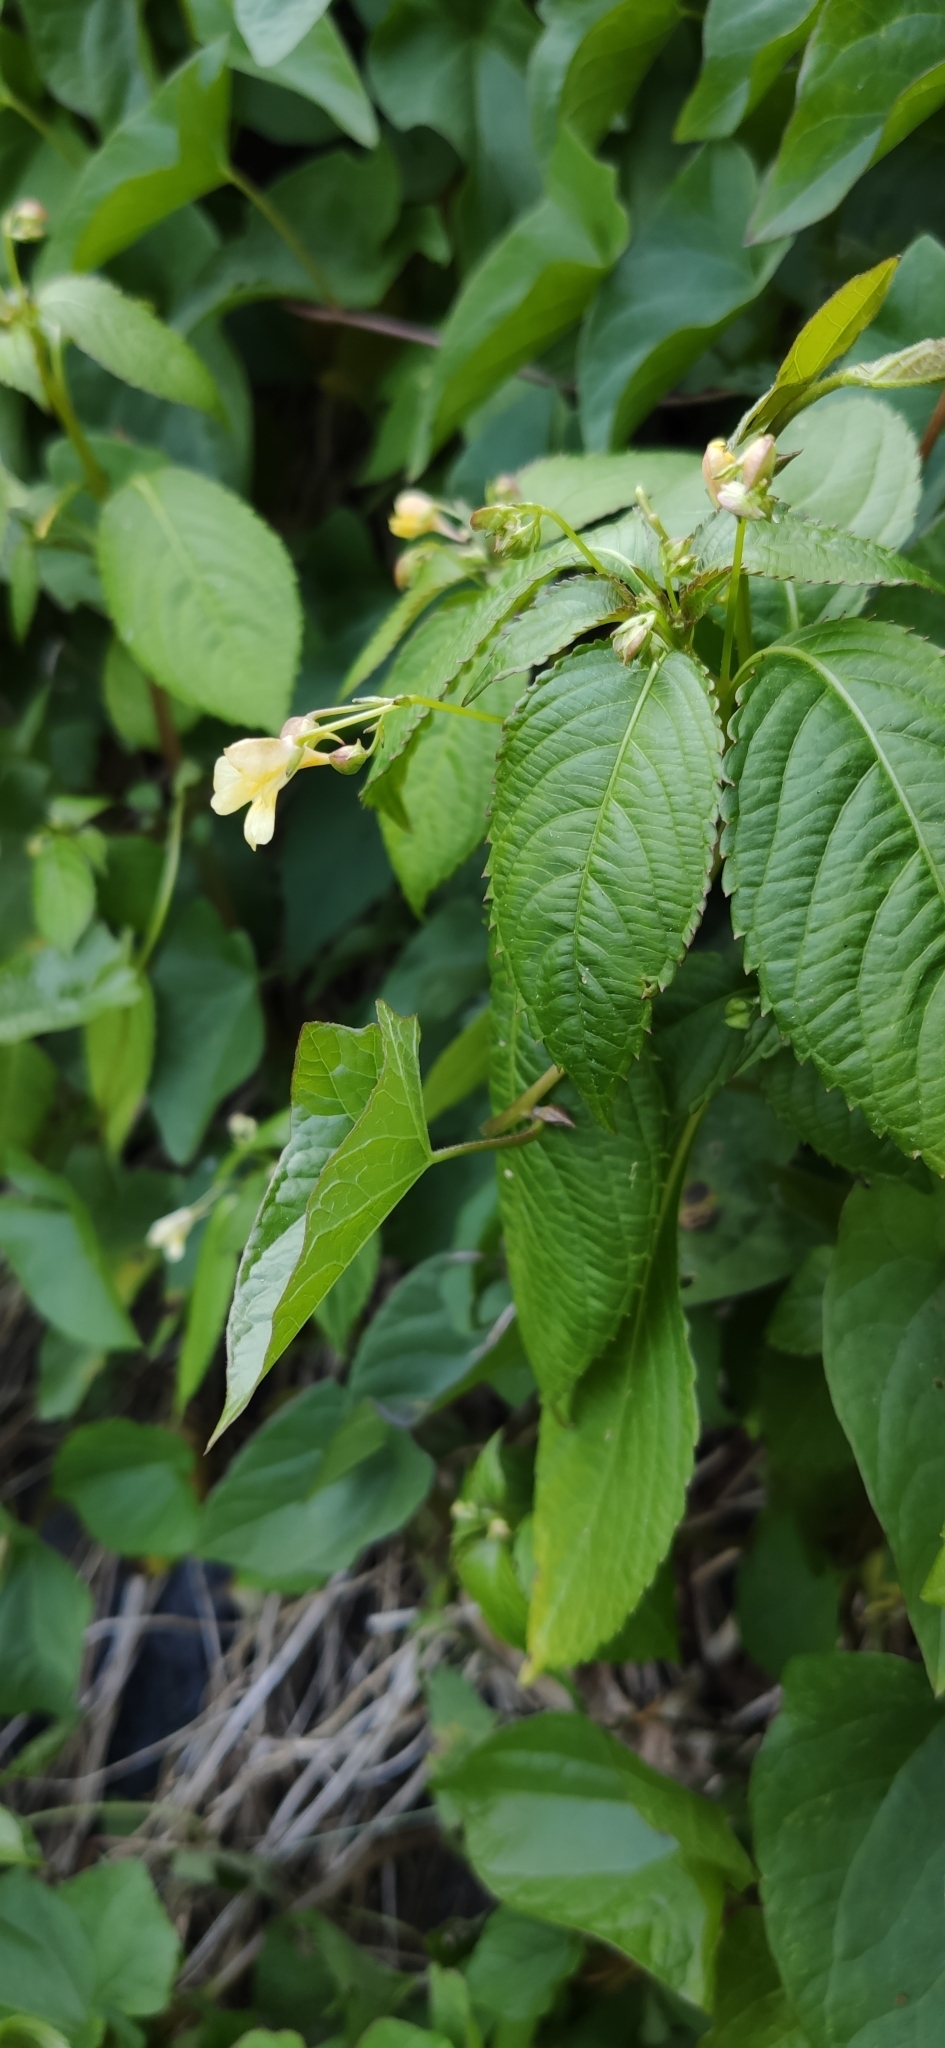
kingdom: Plantae
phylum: Tracheophyta
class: Magnoliopsida
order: Ericales
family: Balsaminaceae
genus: Impatiens
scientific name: Impatiens parviflora
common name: Small balsam
